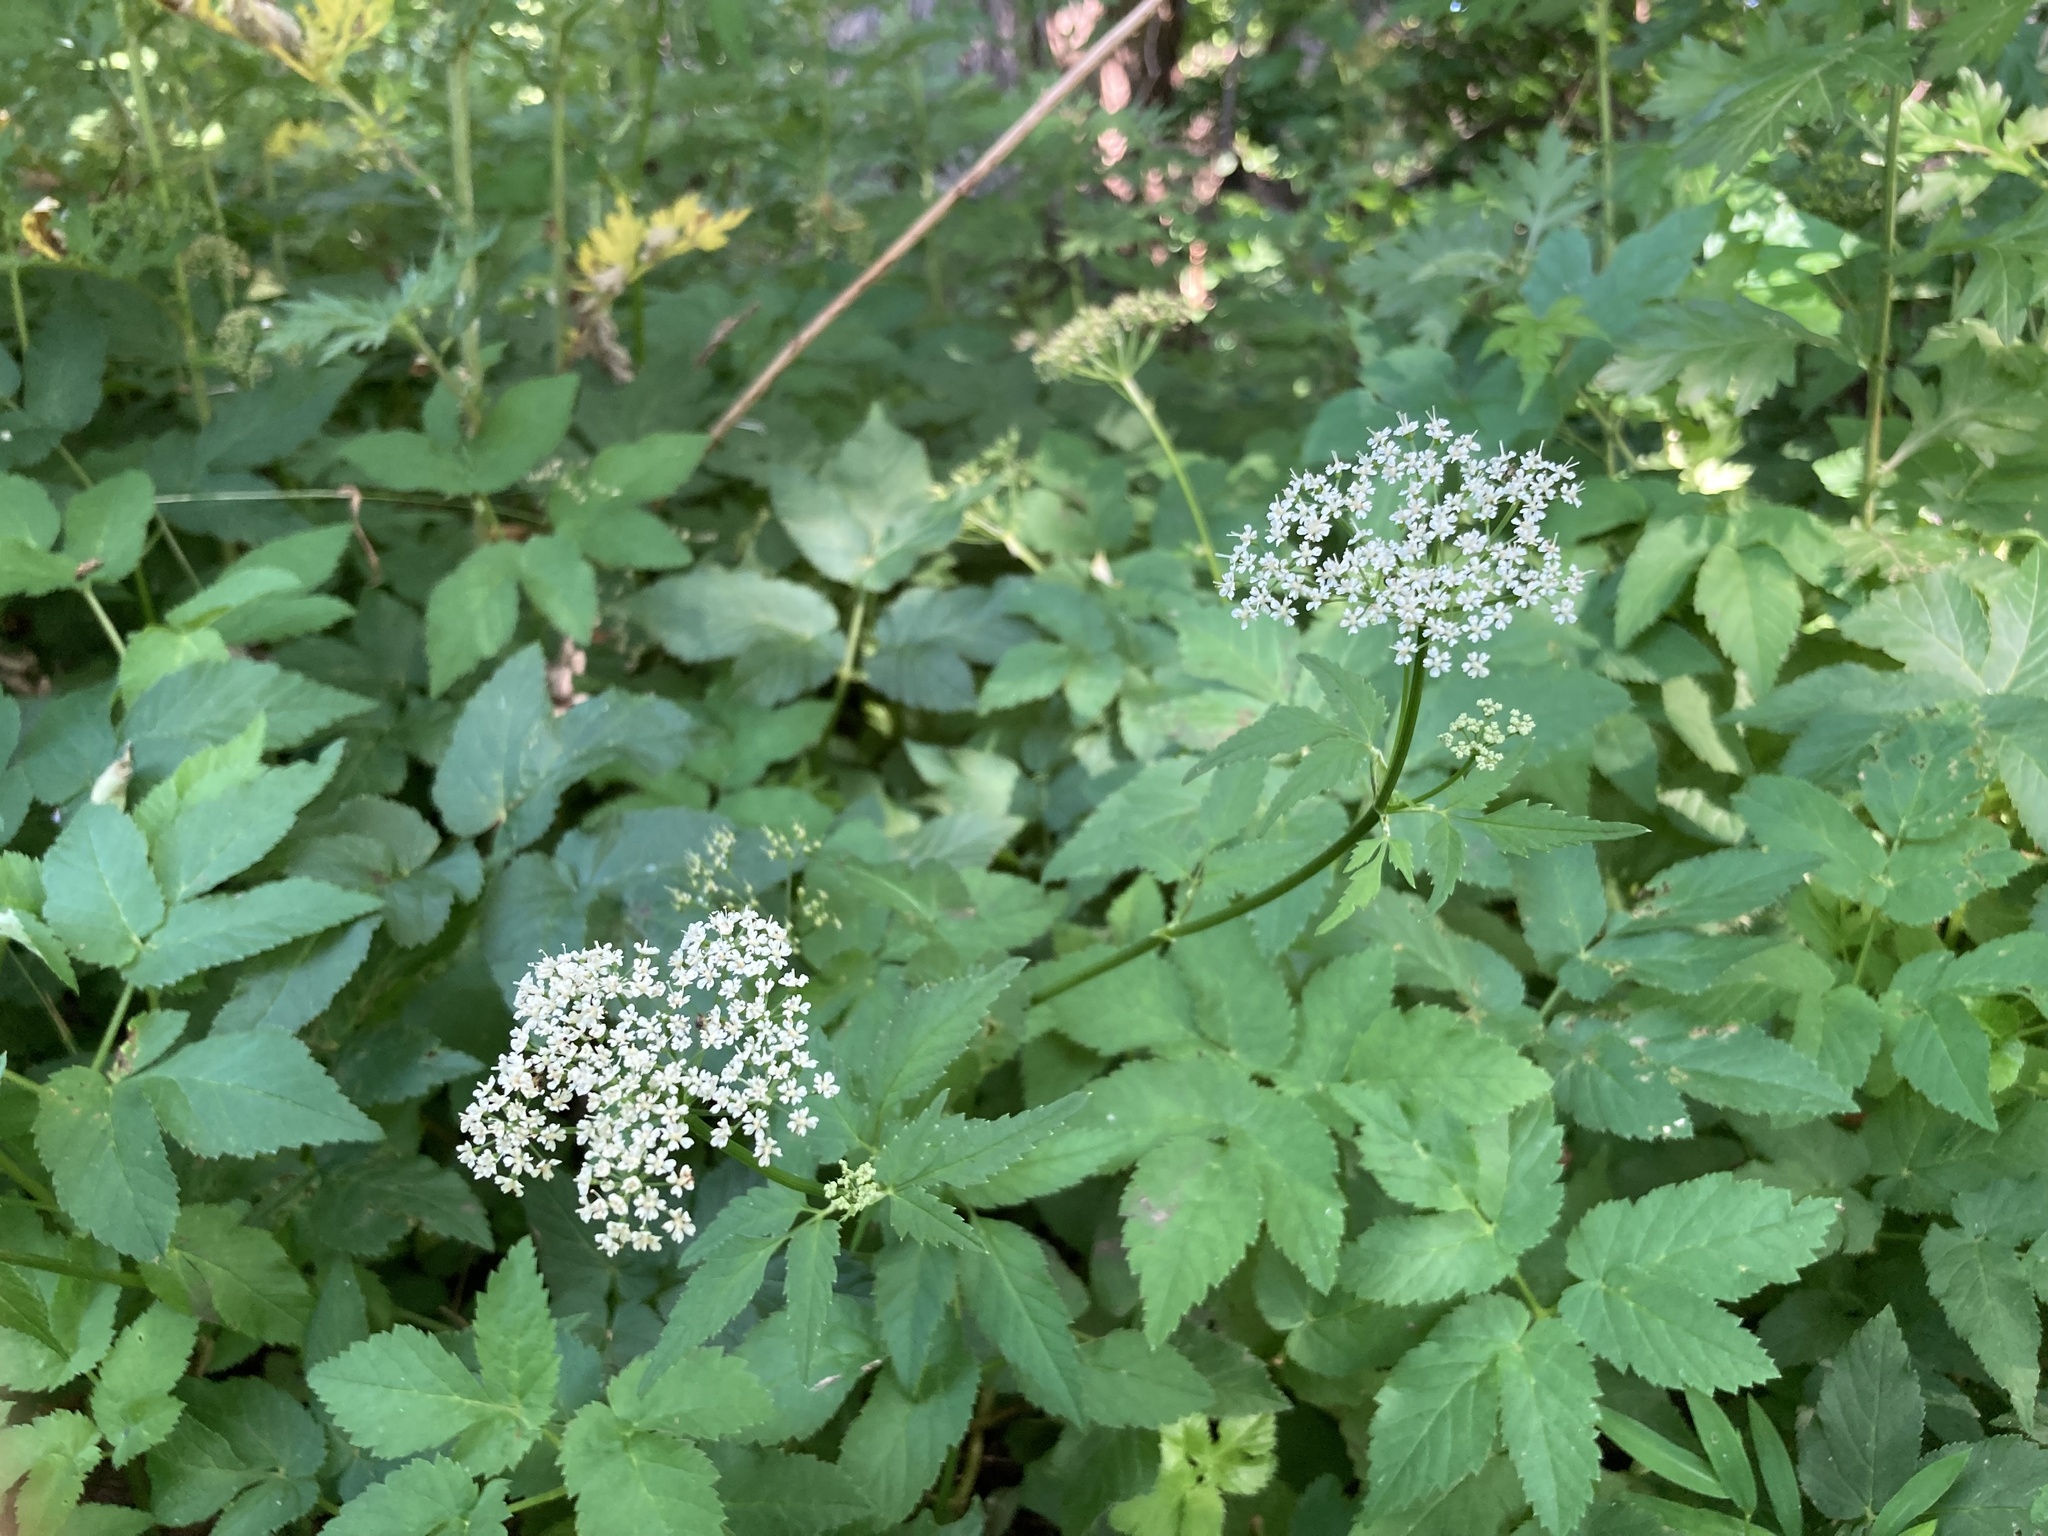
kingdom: Plantae
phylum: Tracheophyta
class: Magnoliopsida
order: Apiales
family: Apiaceae
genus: Aegopodium
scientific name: Aegopodium podagraria
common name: Ground-elder
